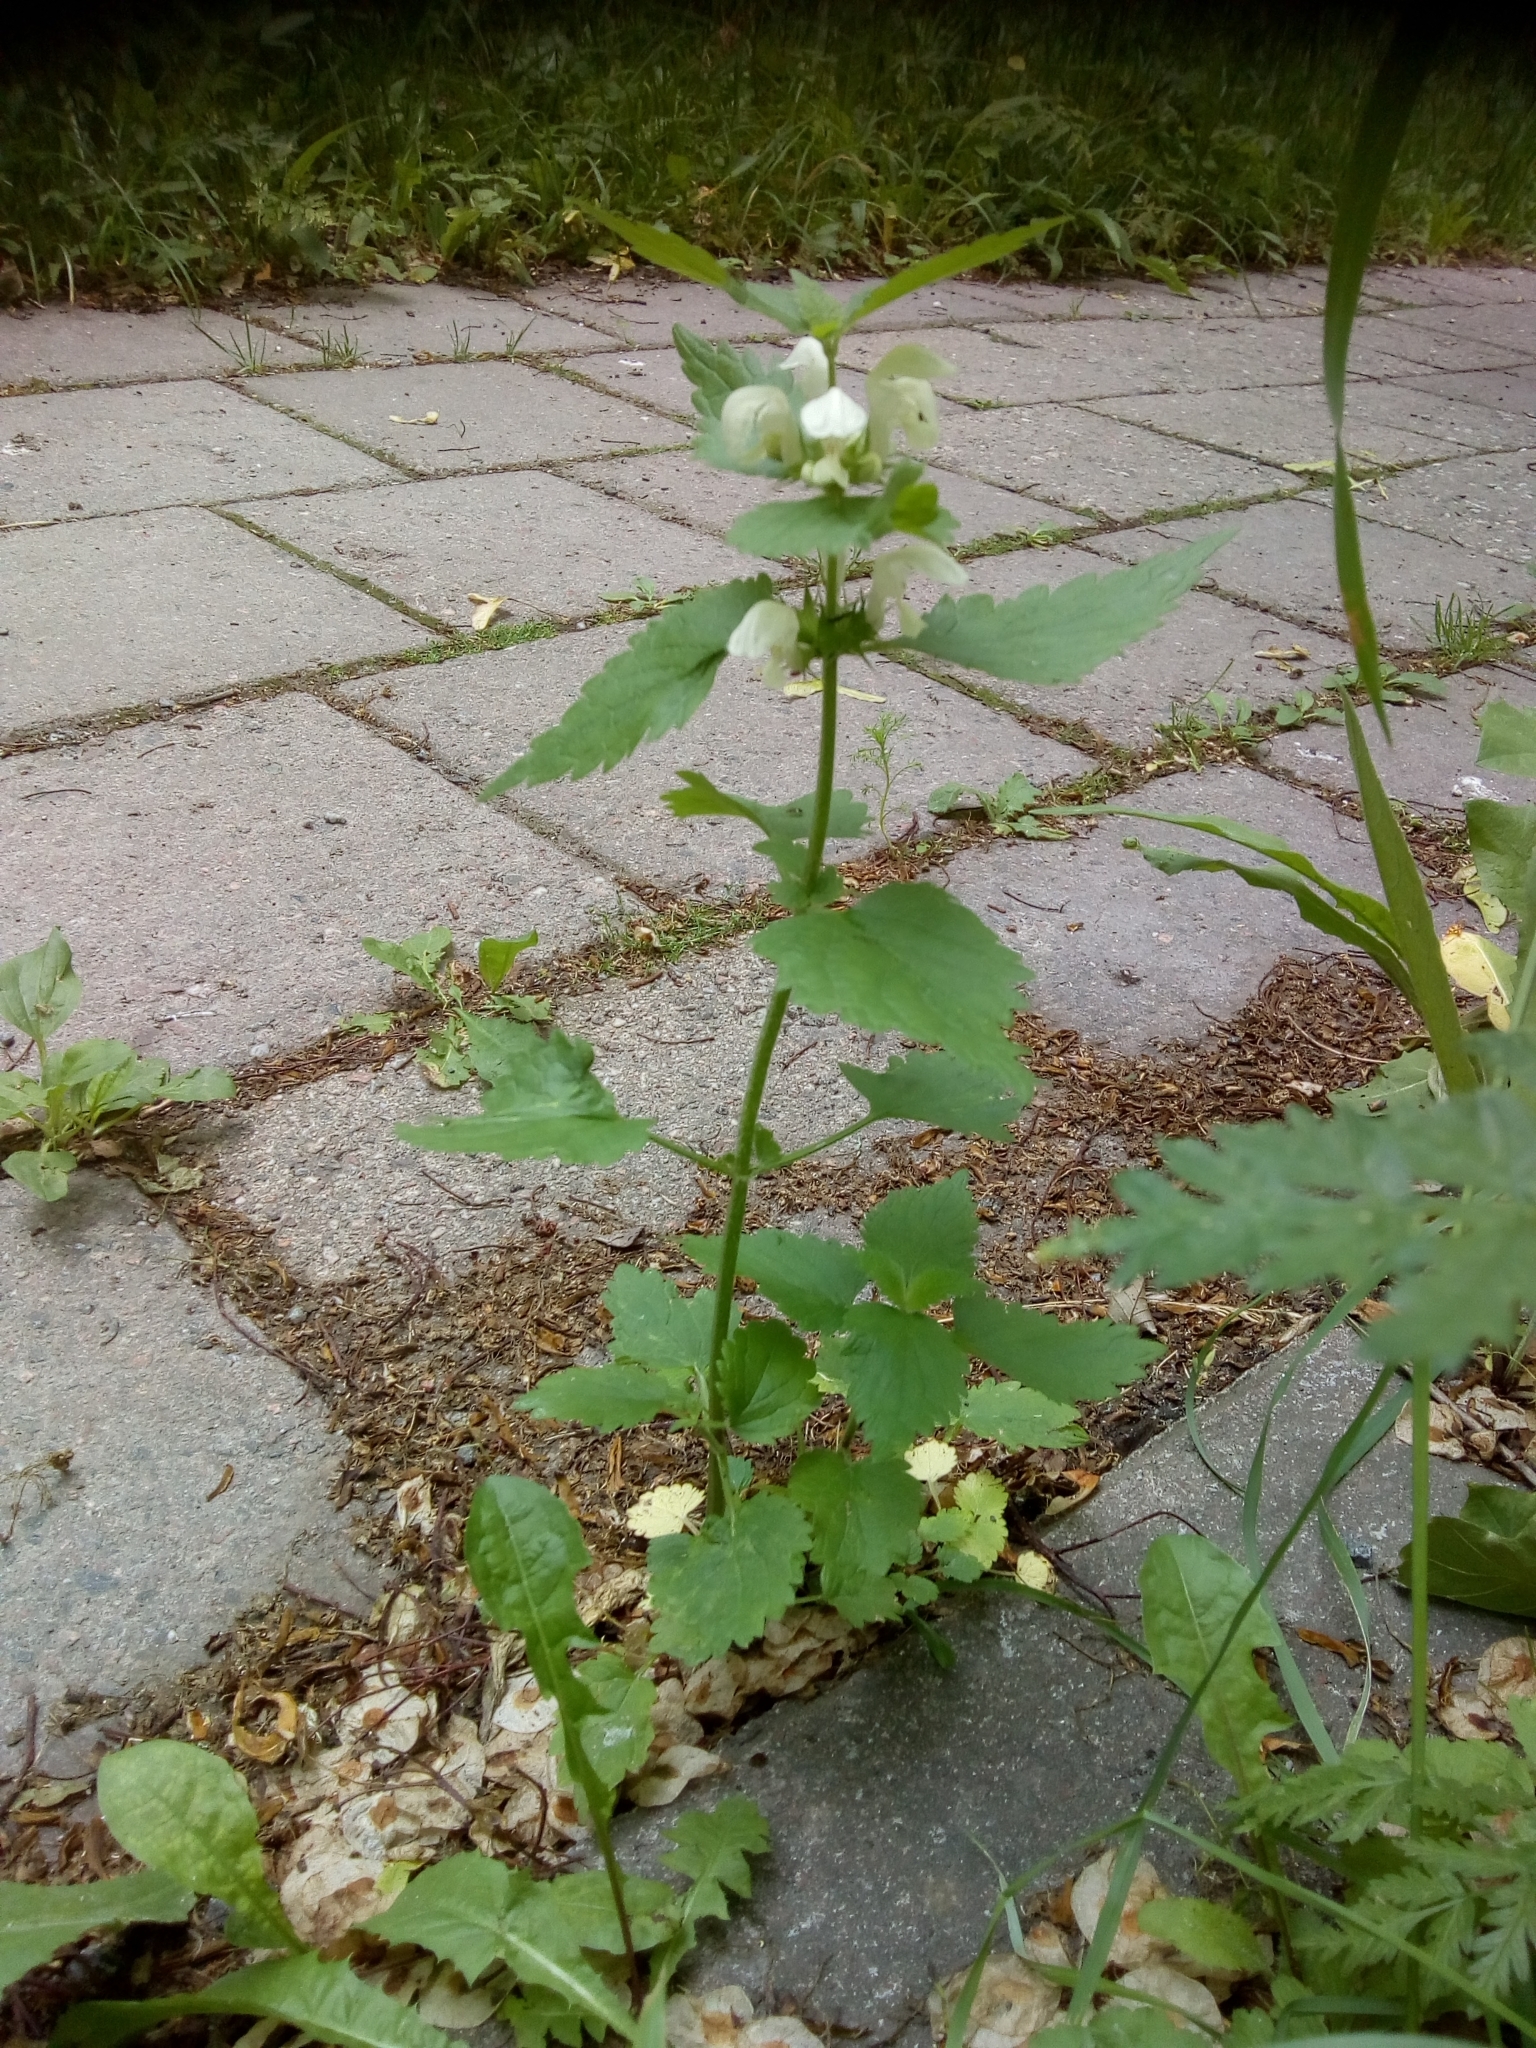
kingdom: Plantae
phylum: Tracheophyta
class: Magnoliopsida
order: Lamiales
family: Lamiaceae
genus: Lamium
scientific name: Lamium album
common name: White dead-nettle
